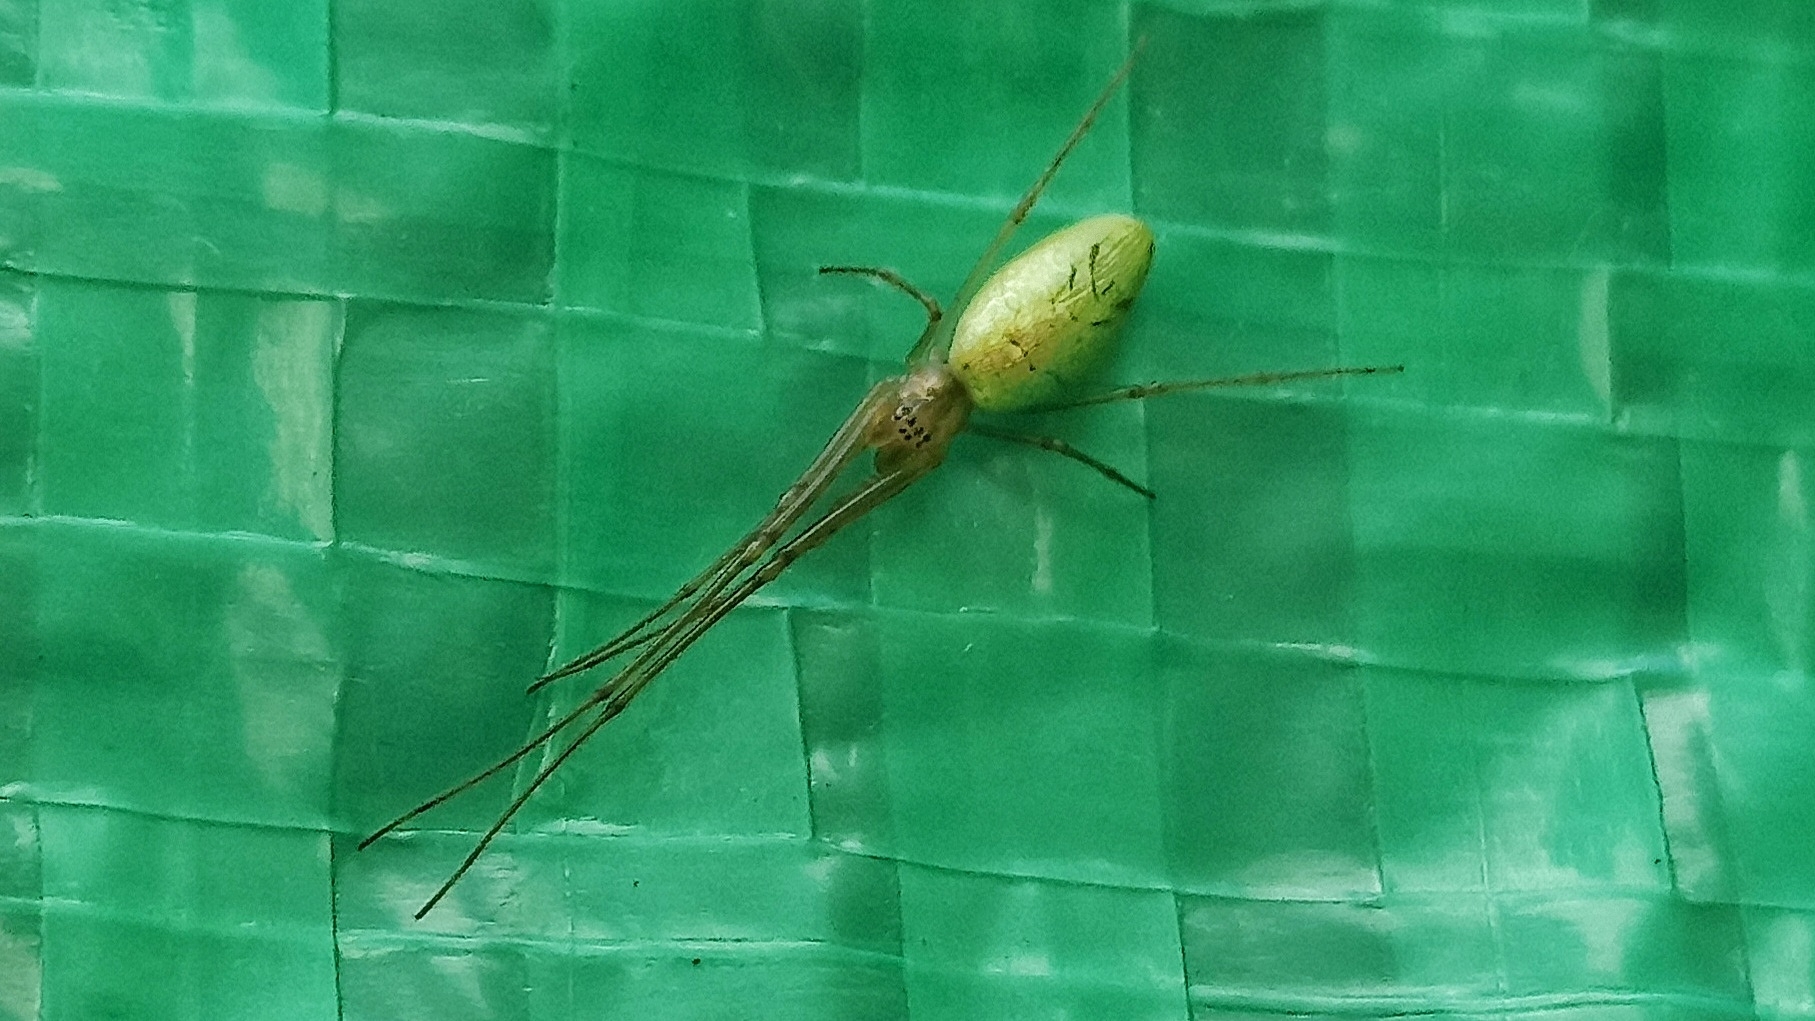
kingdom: Animalia
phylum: Arthropoda
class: Arachnida
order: Araneae
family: Tetragnathidae
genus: Tetragnatha
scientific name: Tetragnatha extensa
